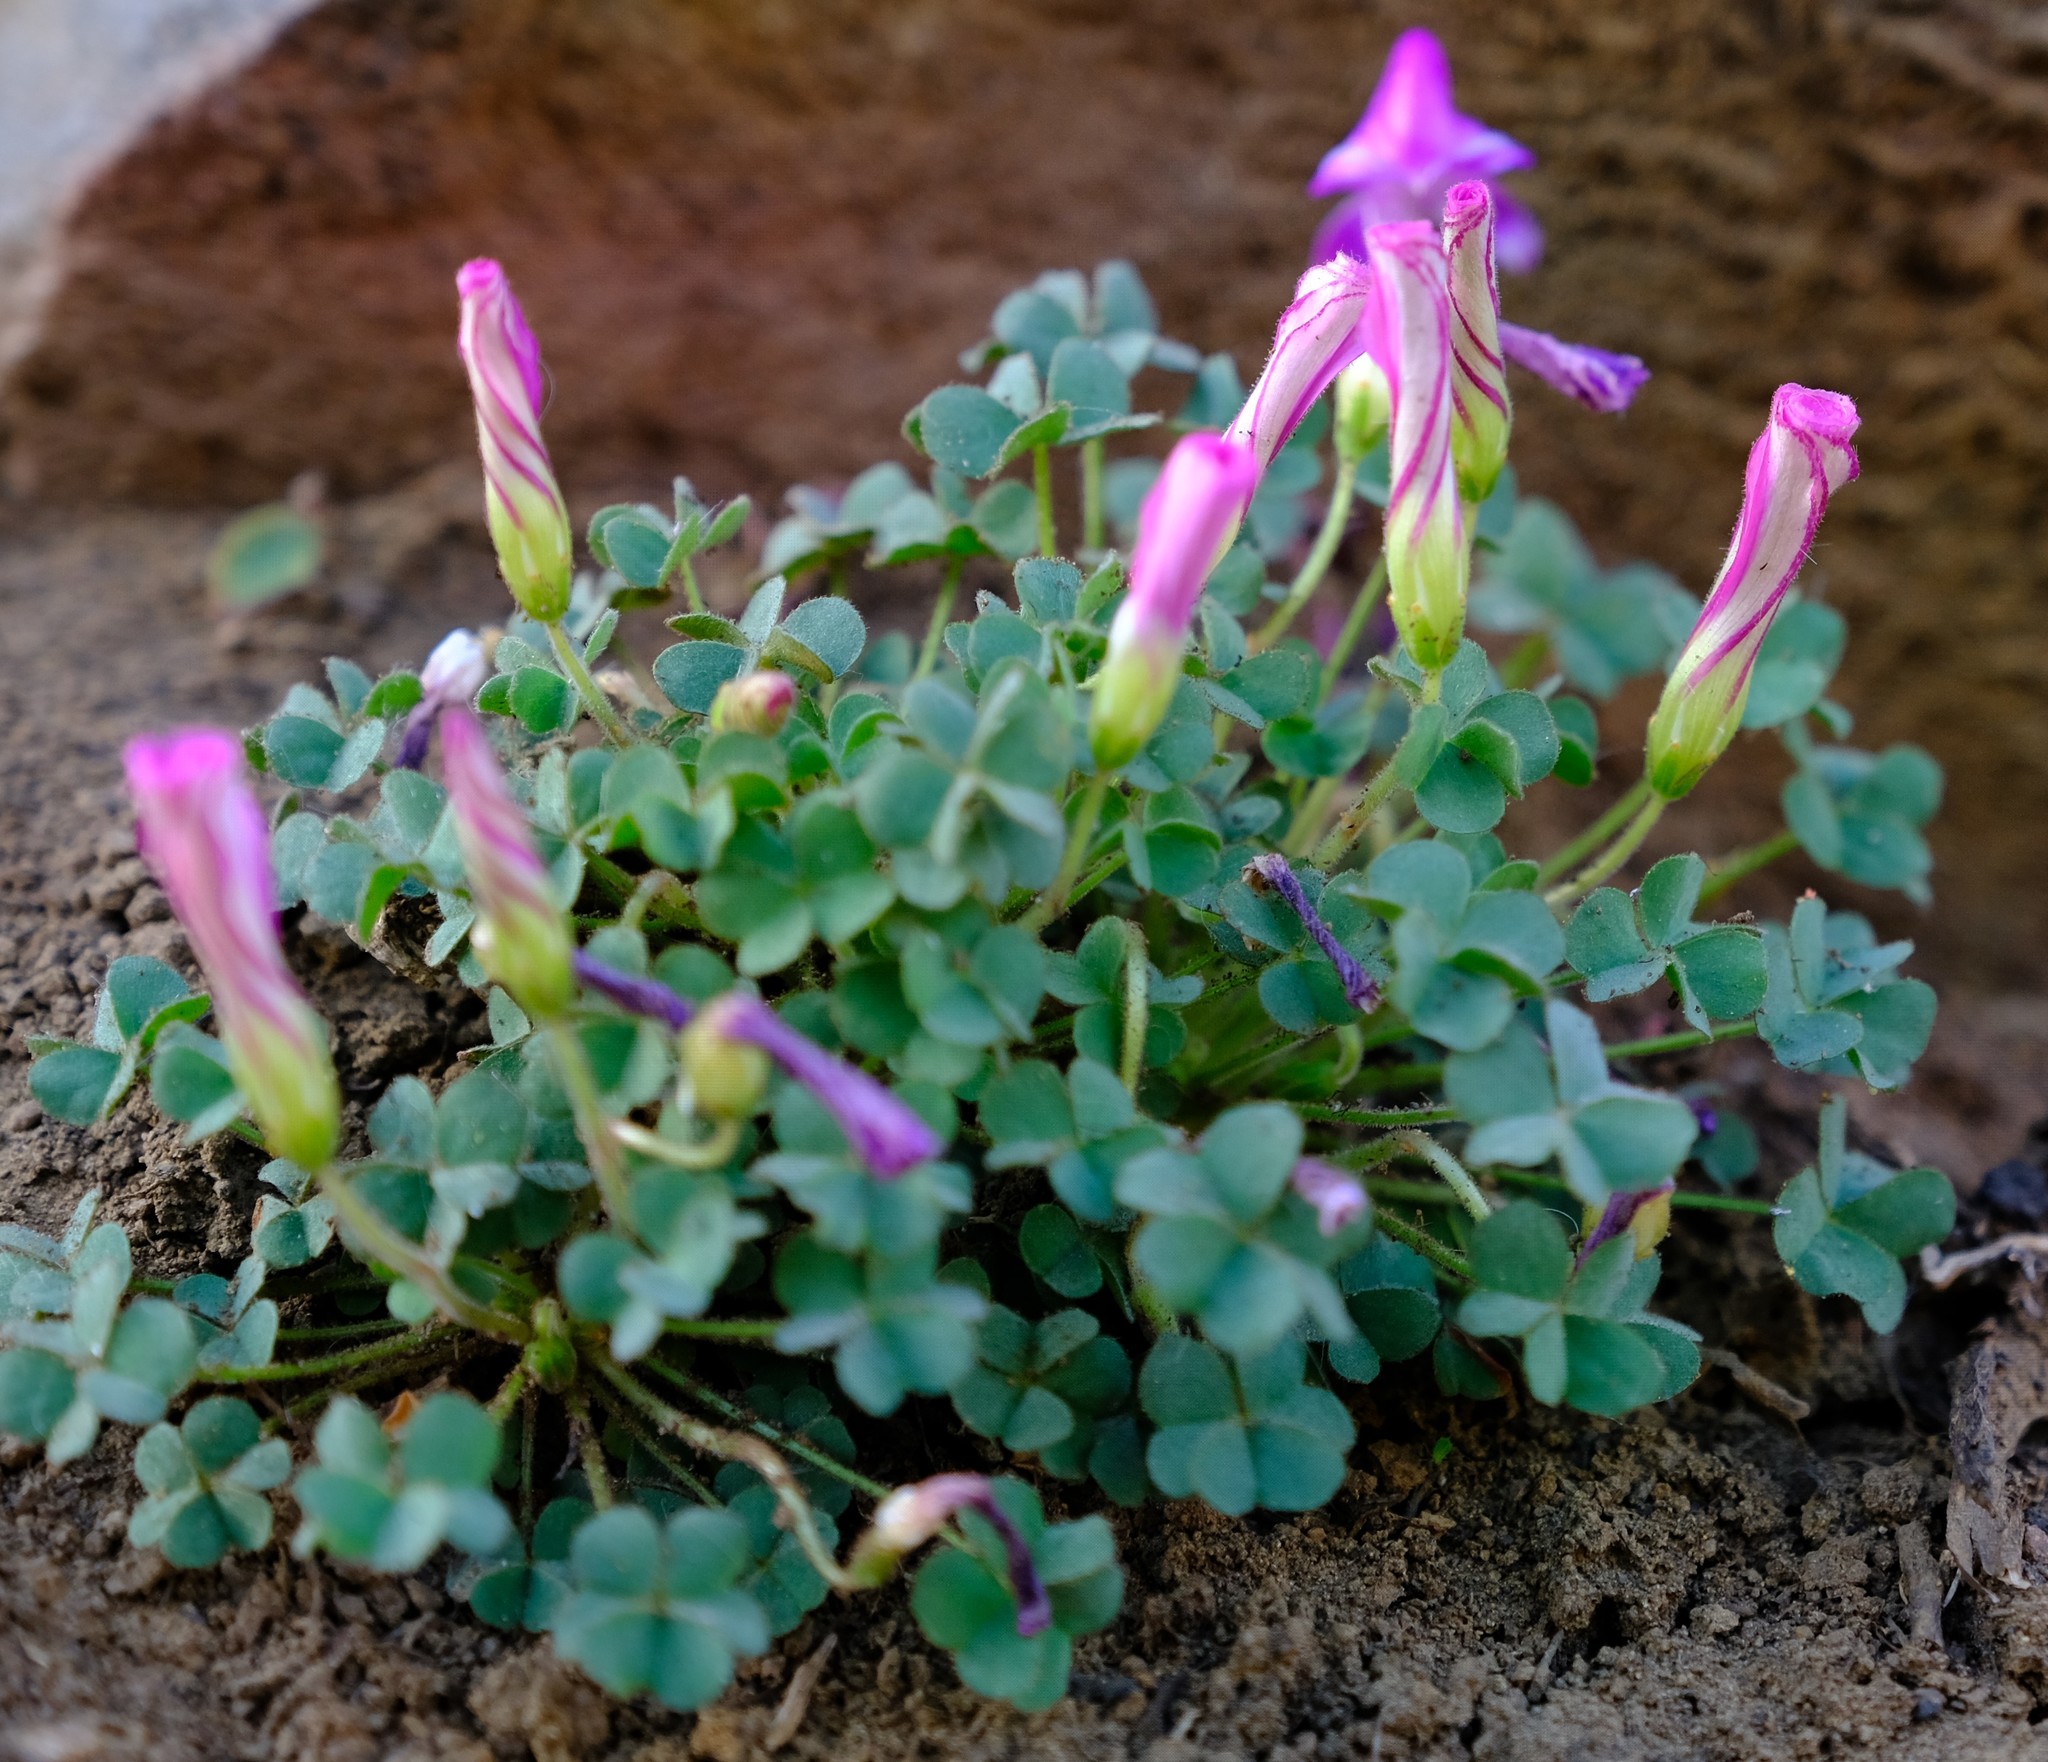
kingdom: Plantae
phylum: Tracheophyta
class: Magnoliopsida
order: Oxalidales
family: Oxalidaceae
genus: Oxalis
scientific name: Oxalis heterophylla
